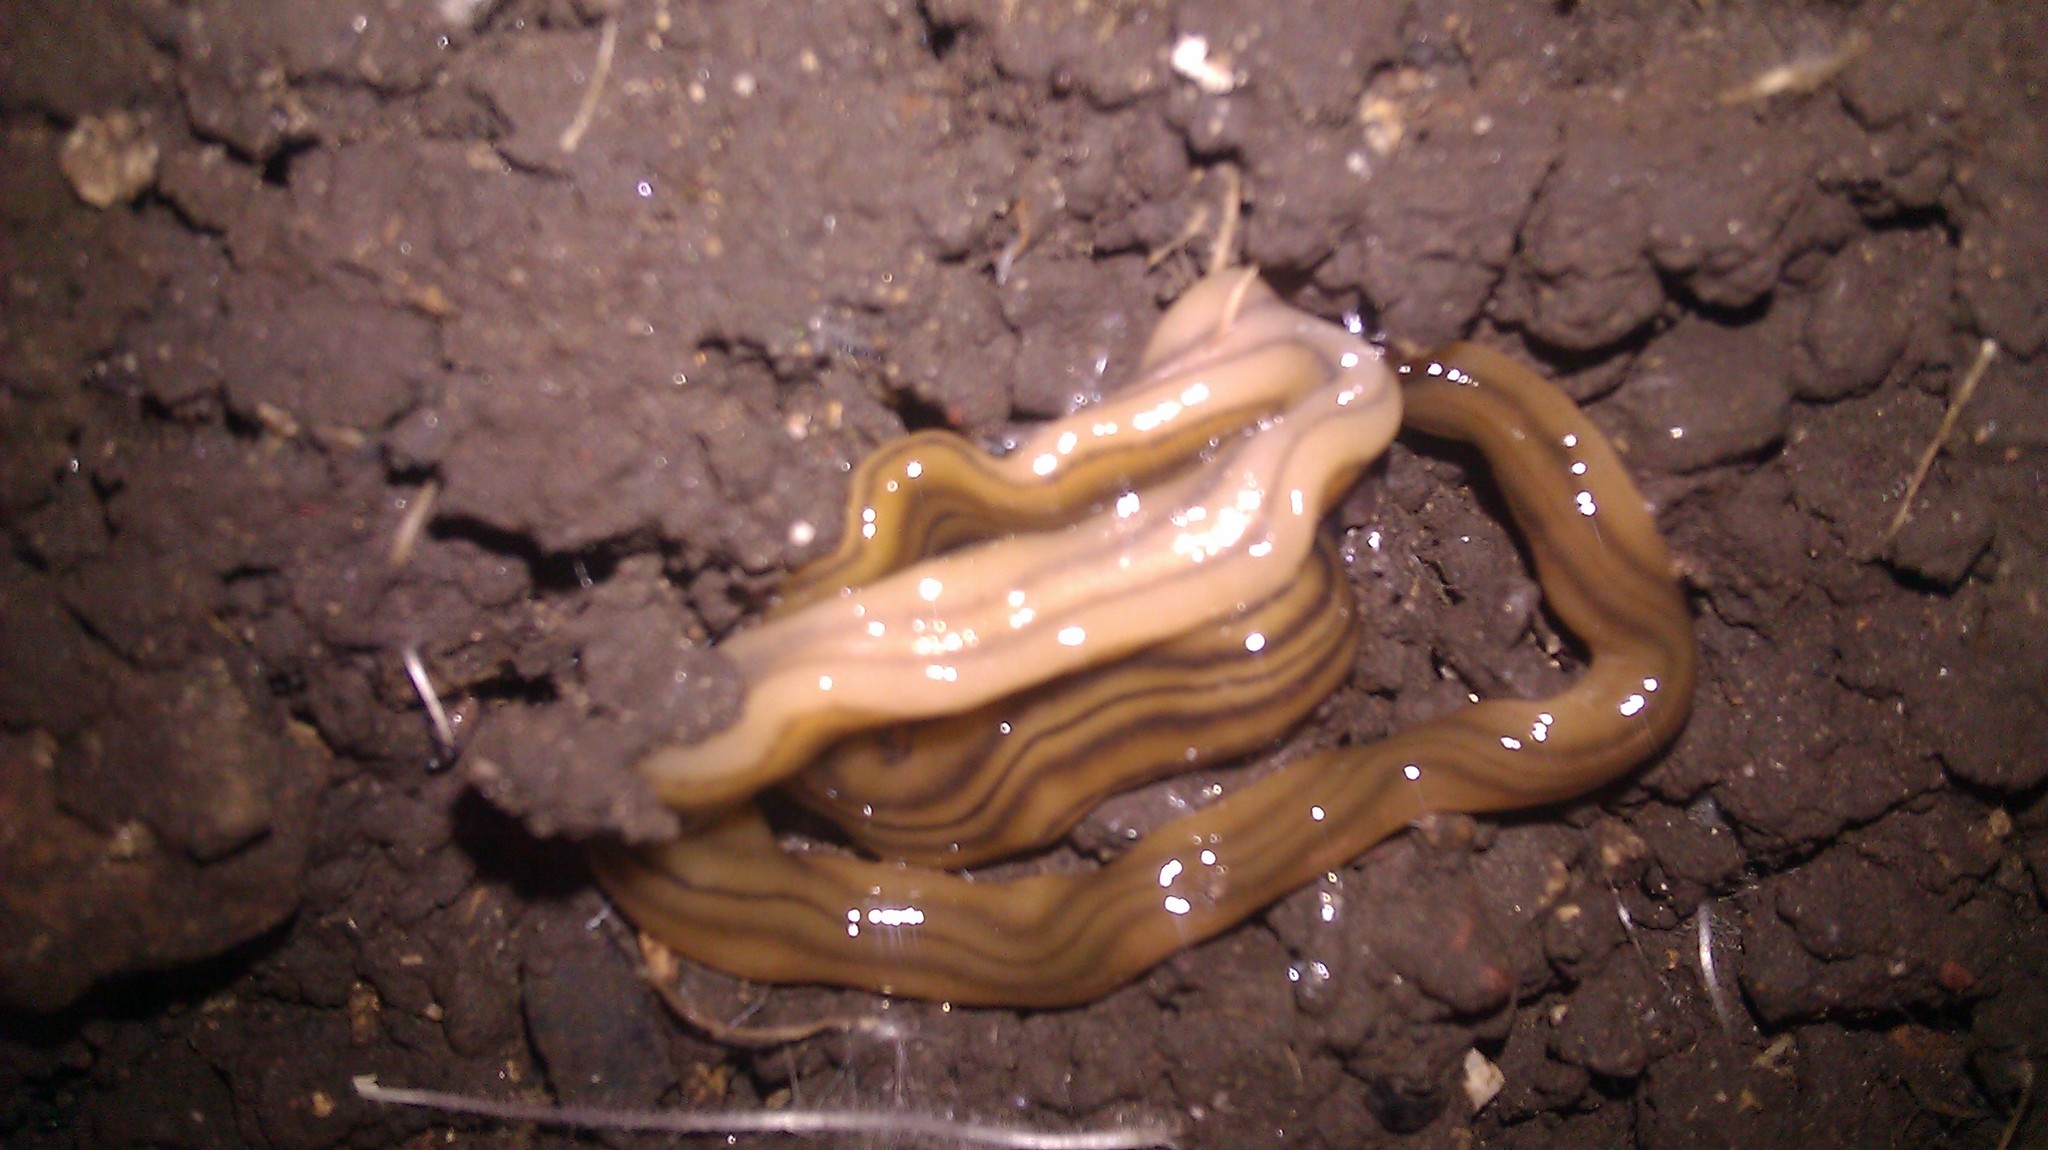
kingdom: Animalia
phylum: Platyhelminthes
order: Tricladida
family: Geoplanidae
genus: Bipalium
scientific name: Bipalium kewense
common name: Hammerhead flatworm
